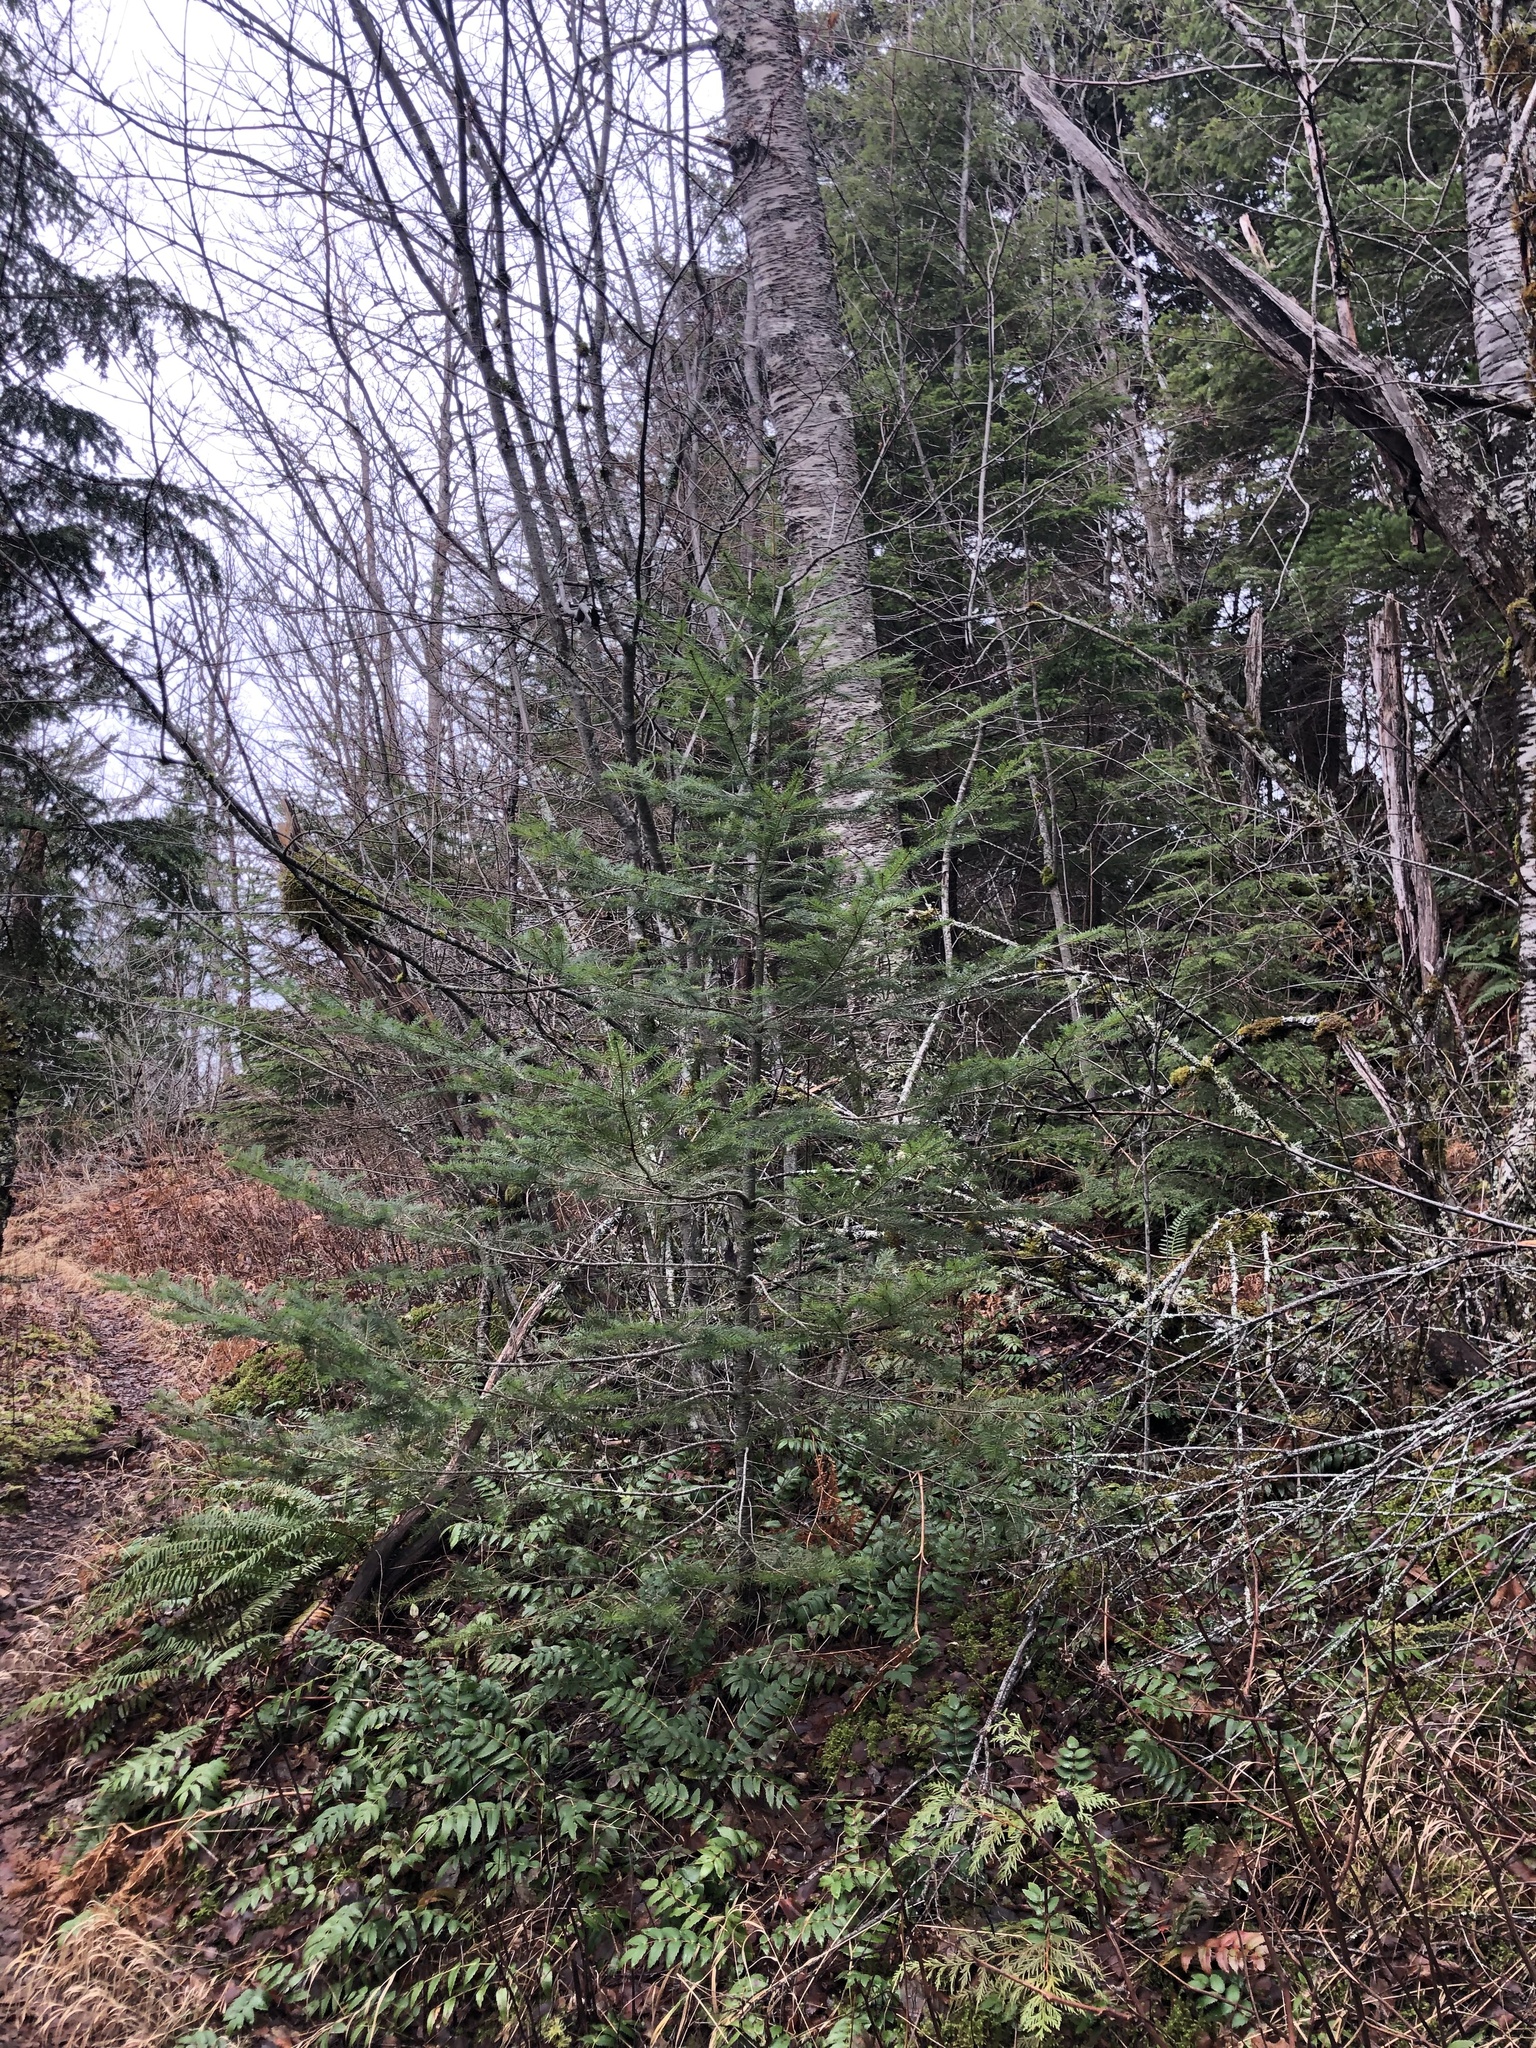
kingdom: Plantae
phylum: Tracheophyta
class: Pinopsida
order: Pinales
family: Pinaceae
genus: Pseudotsuga
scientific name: Pseudotsuga menziesii
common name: Douglas fir
